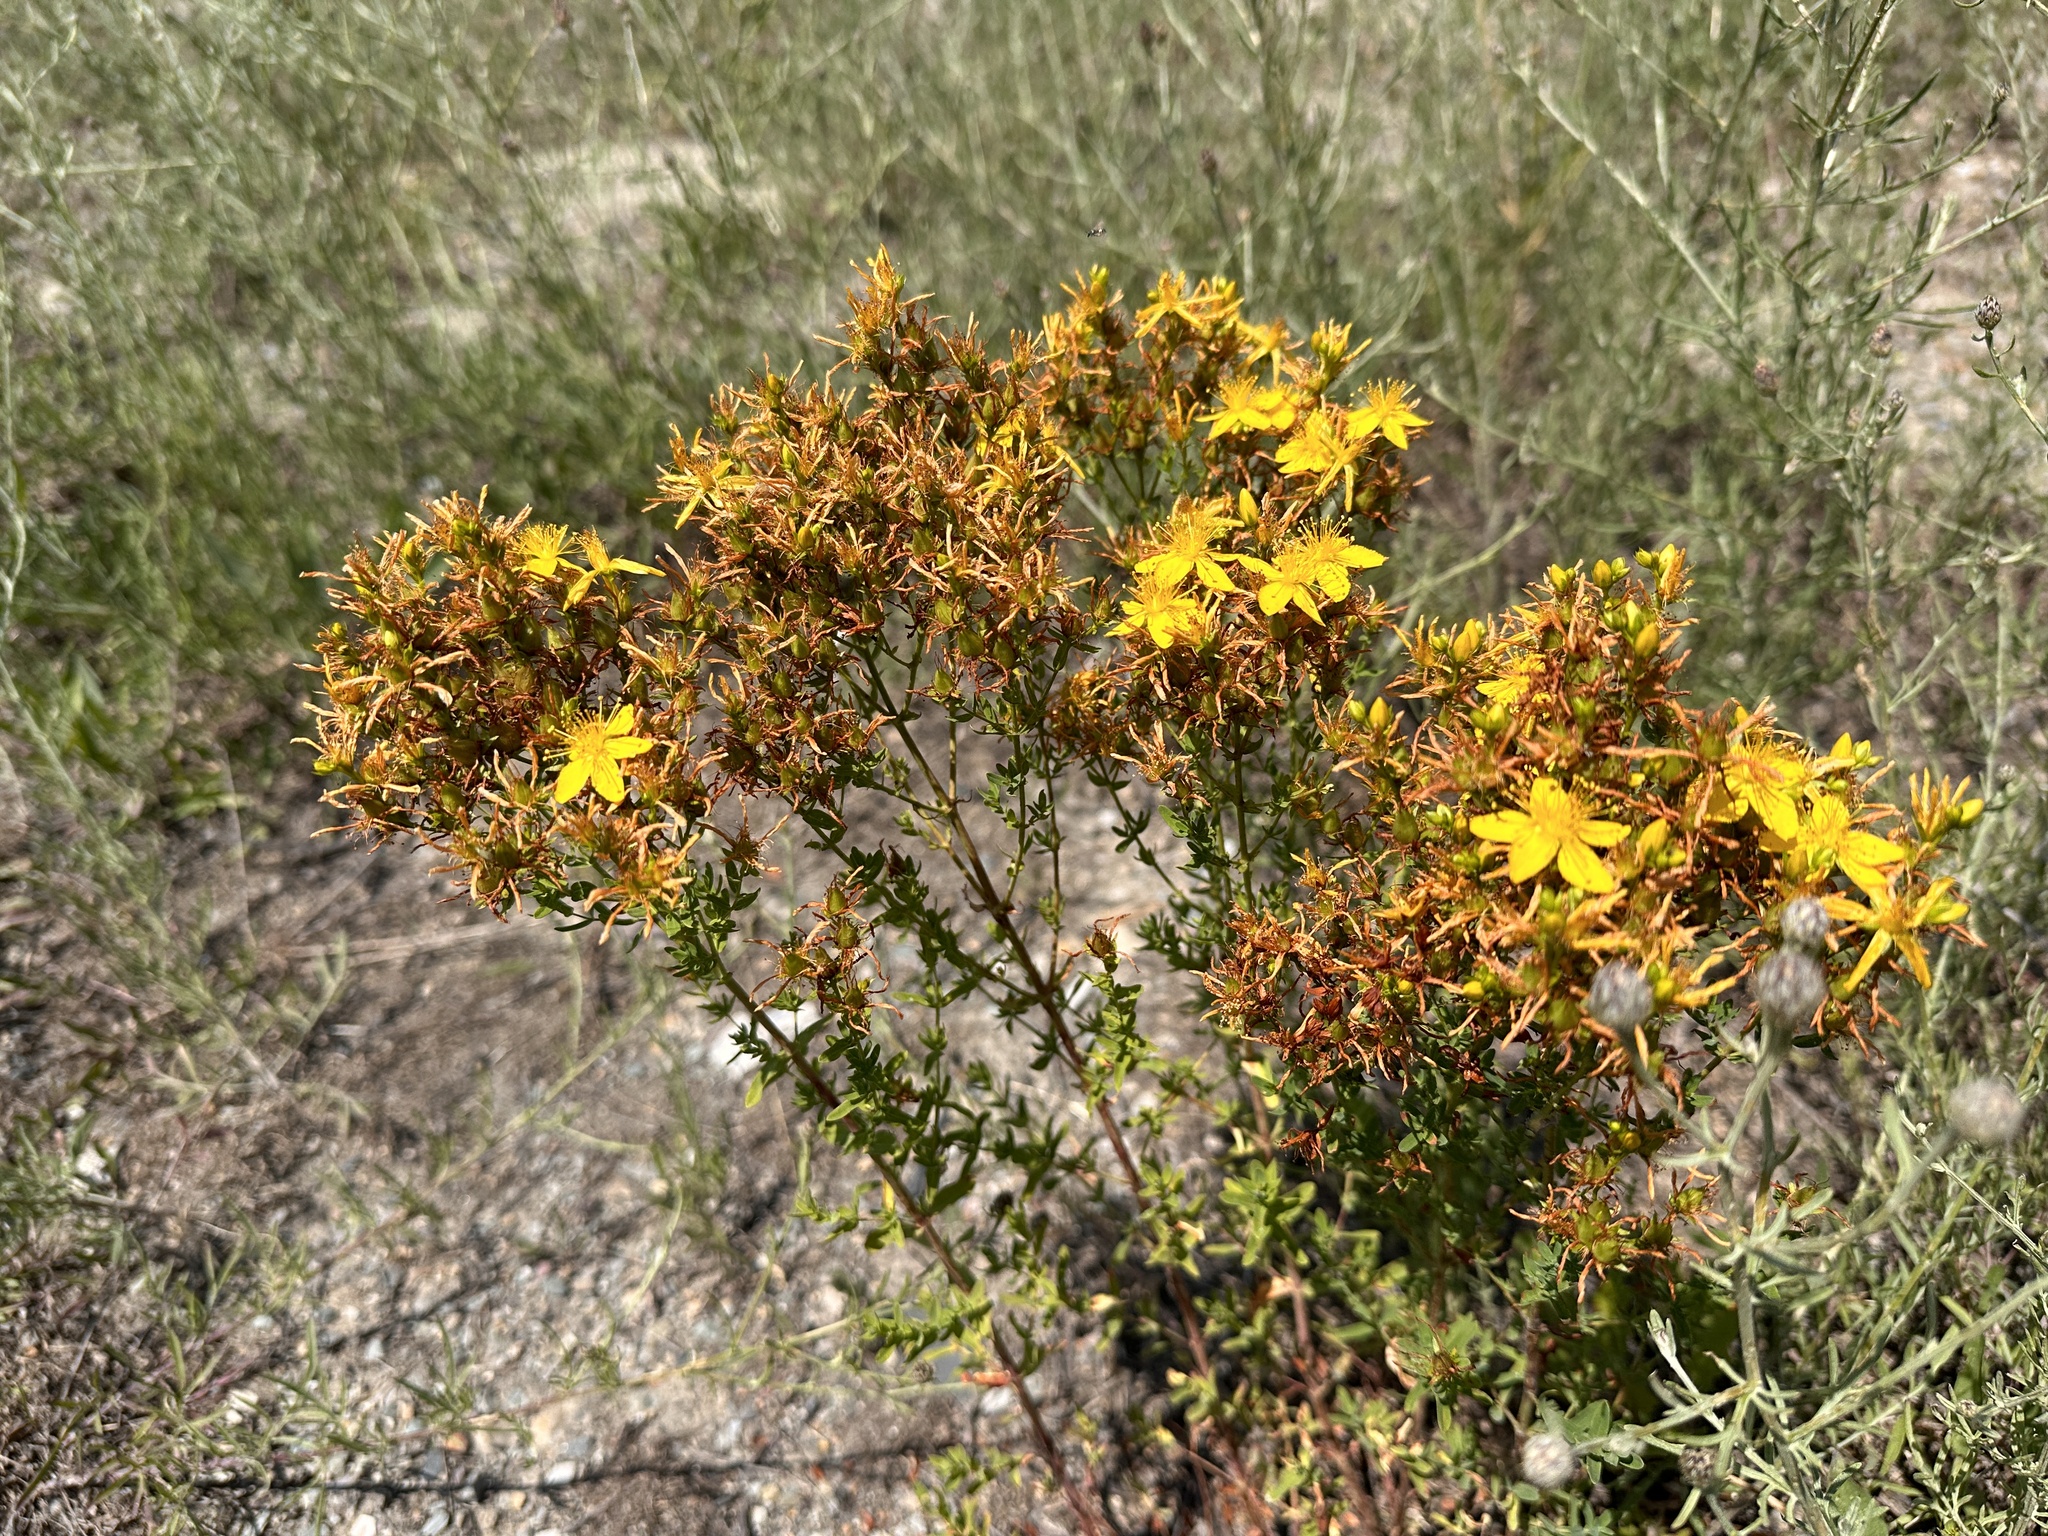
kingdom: Plantae
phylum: Tracheophyta
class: Magnoliopsida
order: Malpighiales
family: Hypericaceae
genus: Hypericum
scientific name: Hypericum perforatum
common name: Common st. johnswort
